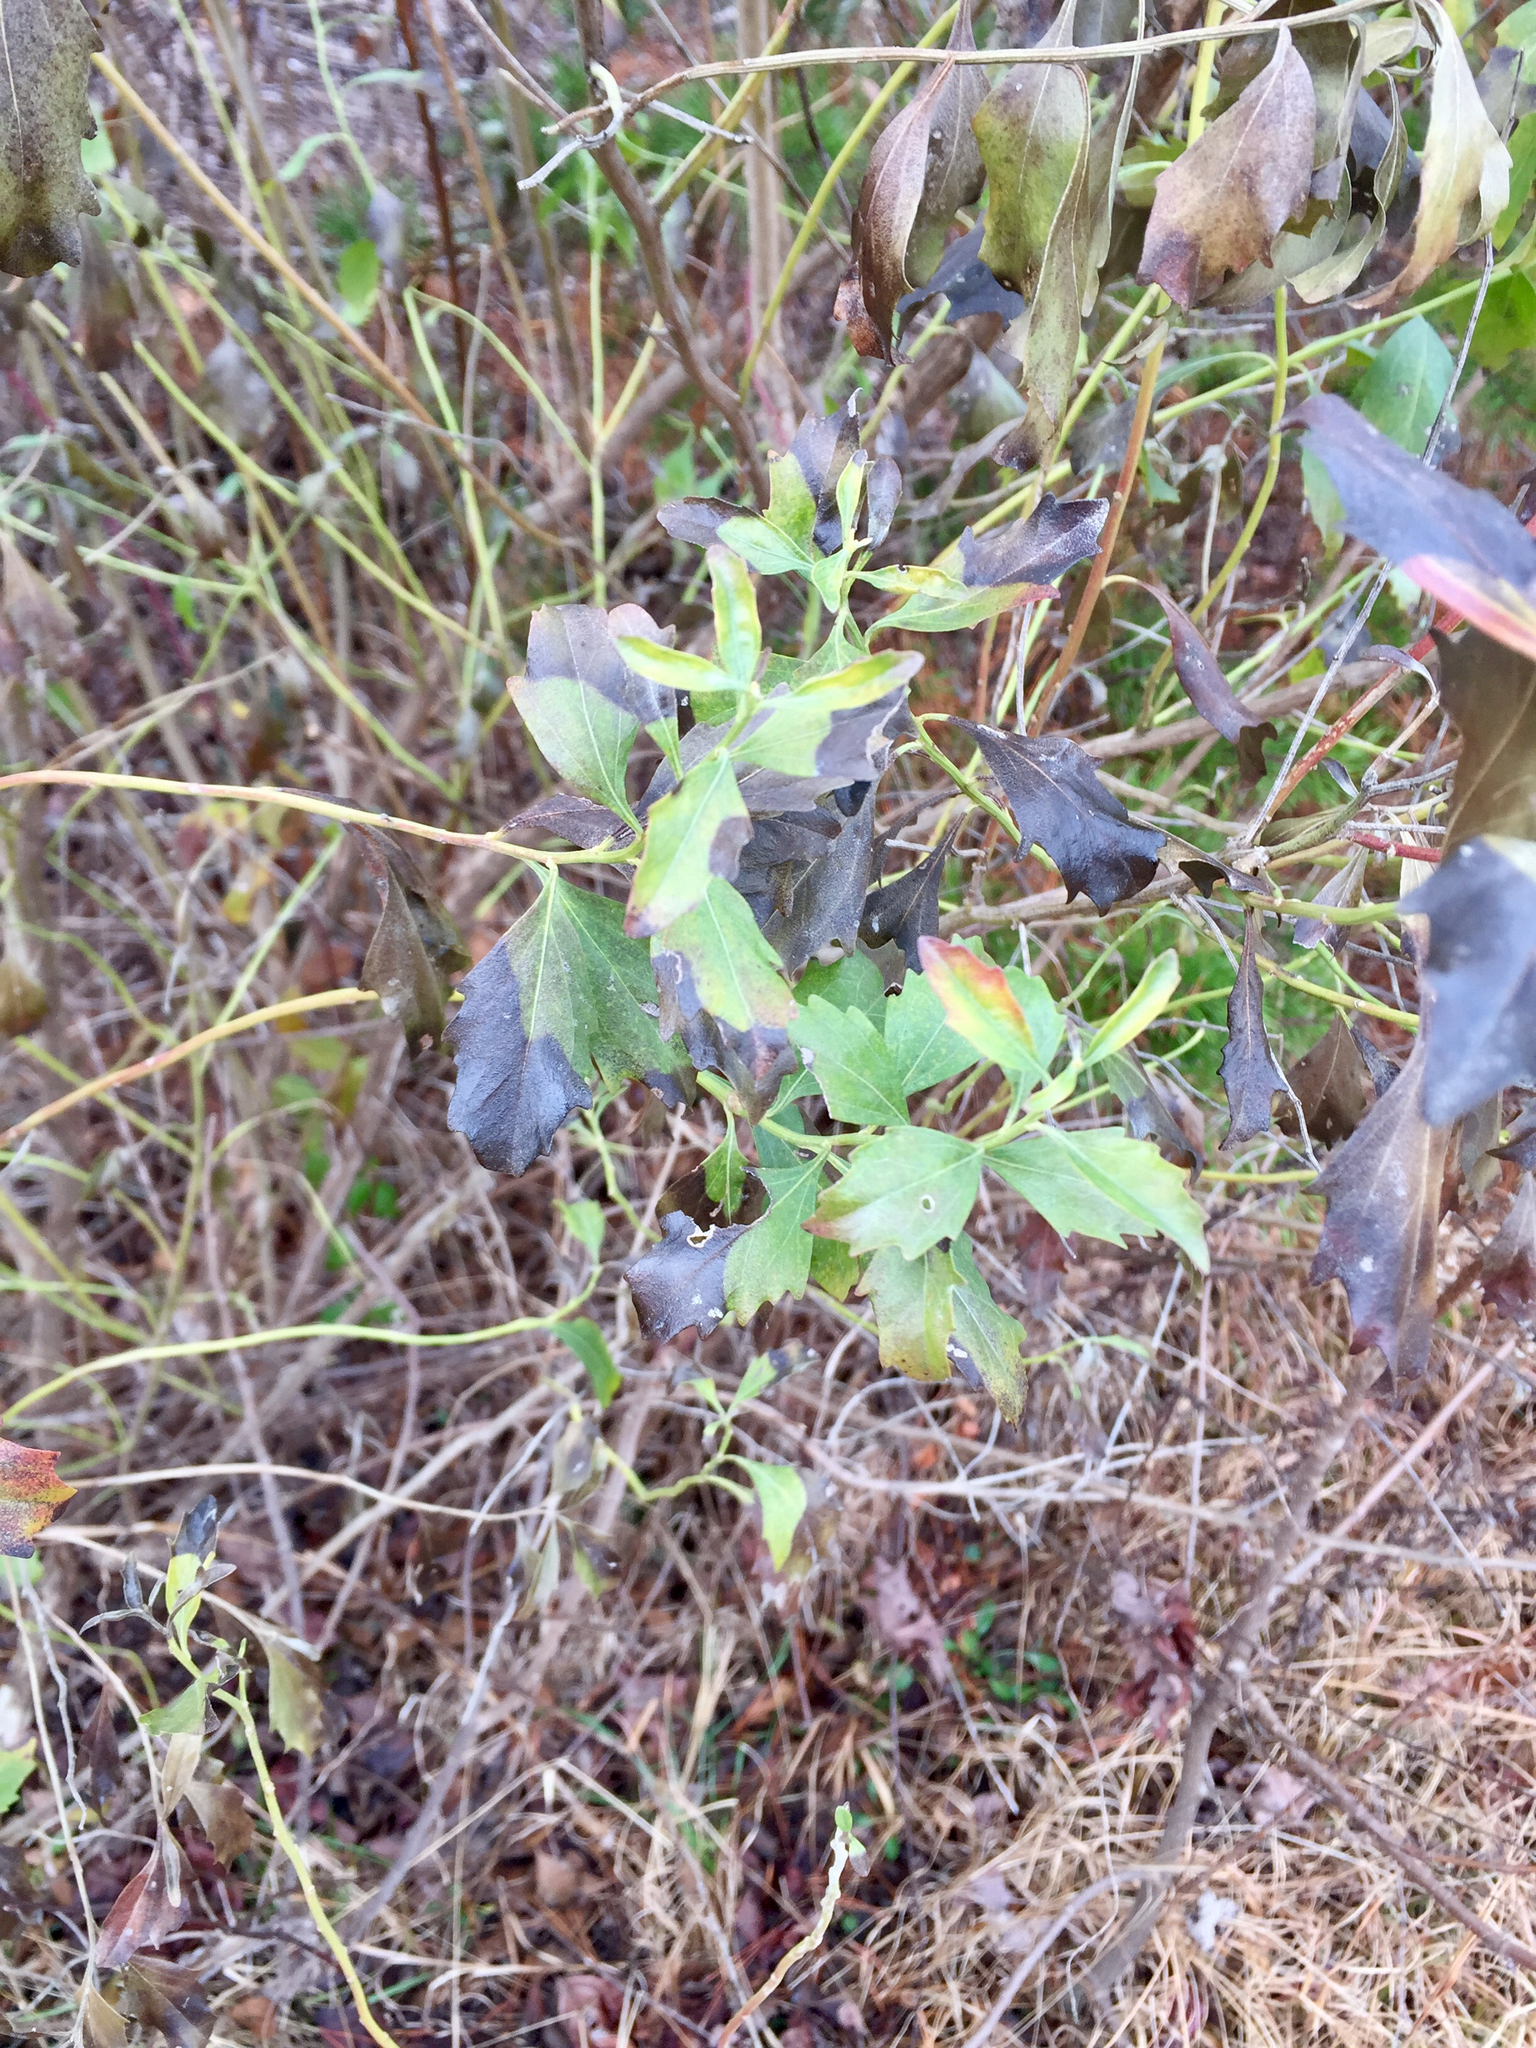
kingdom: Plantae
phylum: Tracheophyta
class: Magnoliopsida
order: Asterales
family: Asteraceae
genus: Baccharis
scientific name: Baccharis halimifolia
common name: Eastern baccharis
